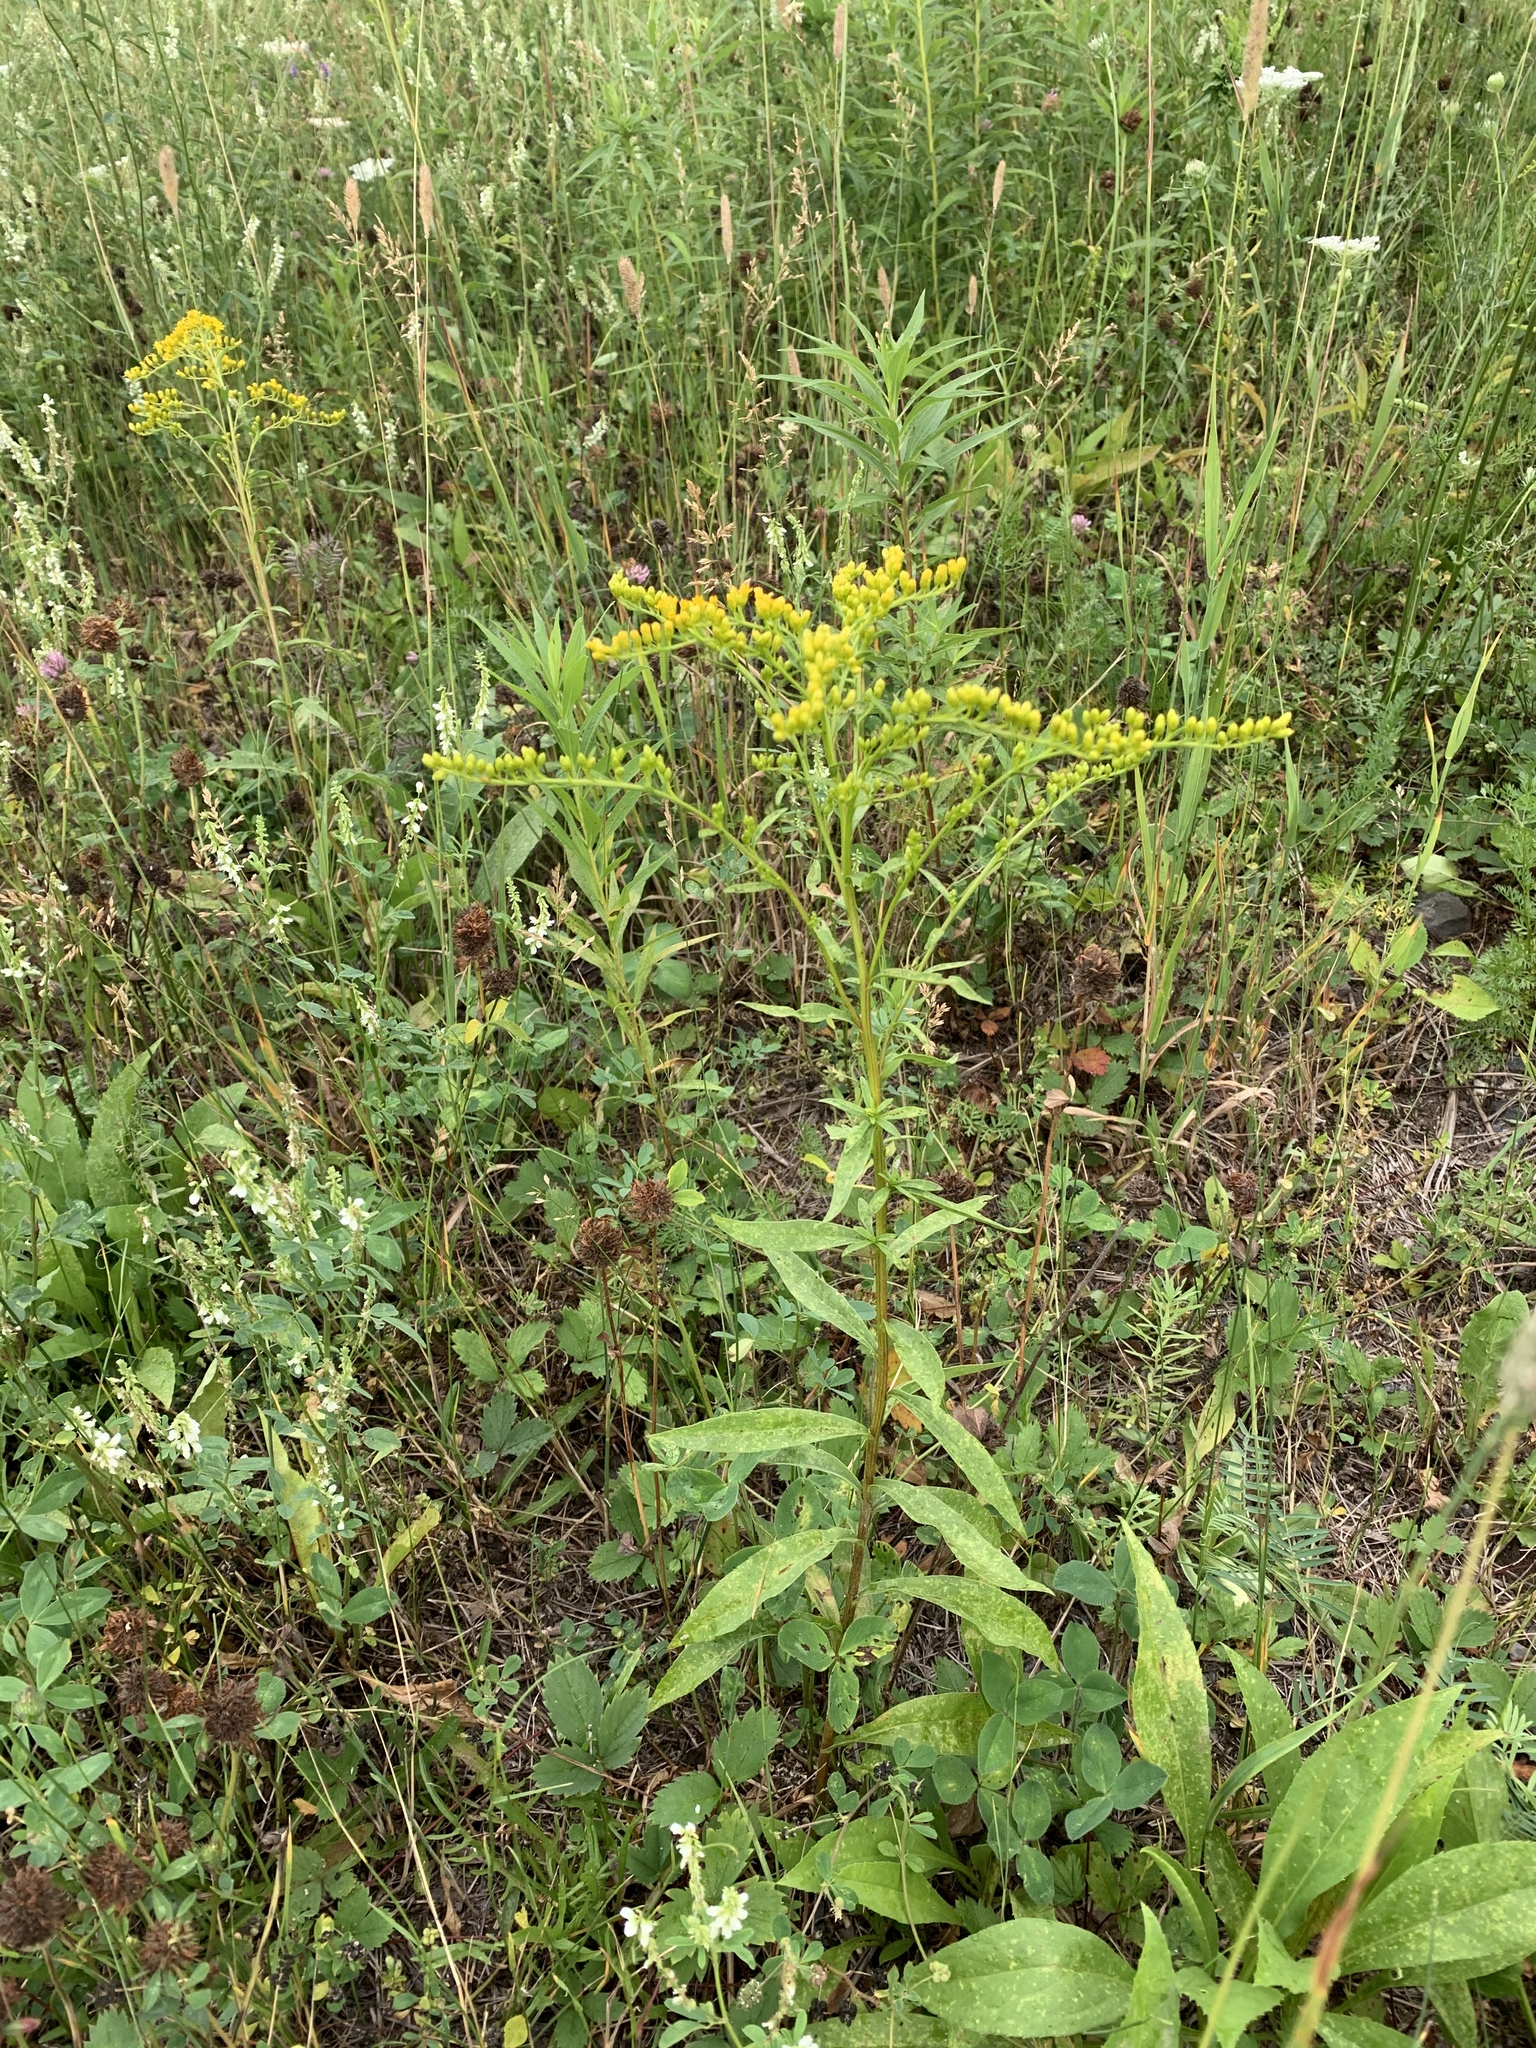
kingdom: Plantae
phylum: Tracheophyta
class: Magnoliopsida
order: Asterales
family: Asteraceae
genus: Solidago
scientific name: Solidago juncea
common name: Early goldenrod
